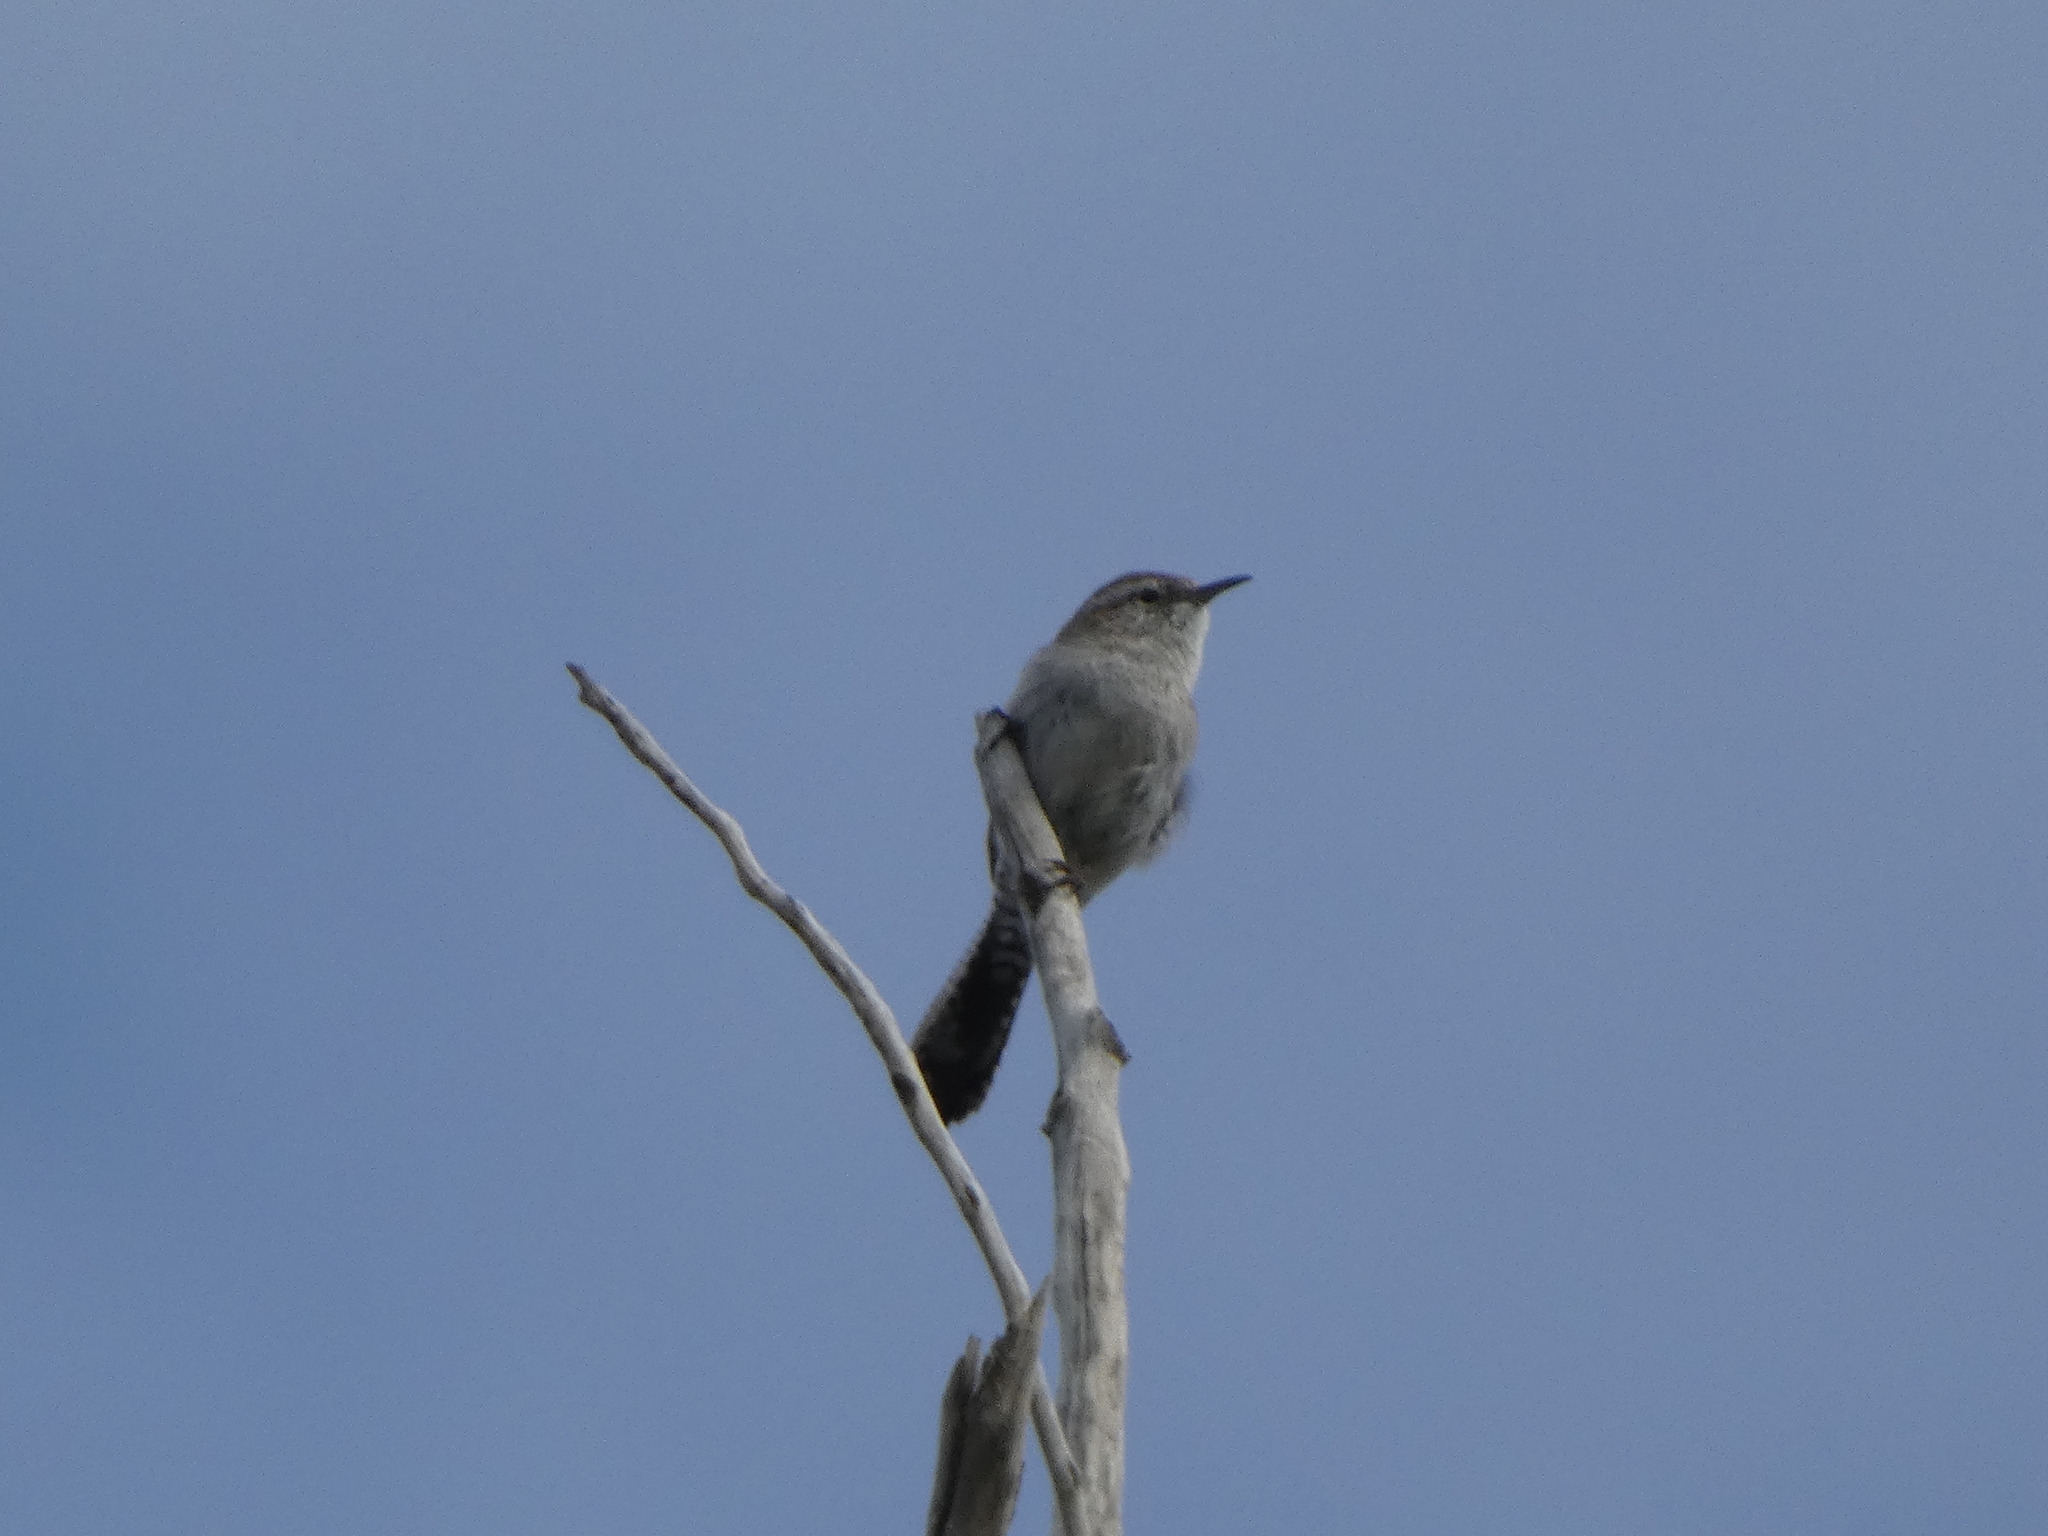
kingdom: Animalia
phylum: Chordata
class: Aves
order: Passeriformes
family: Troglodytidae
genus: Thryomanes
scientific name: Thryomanes bewickii
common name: Bewick's wren
